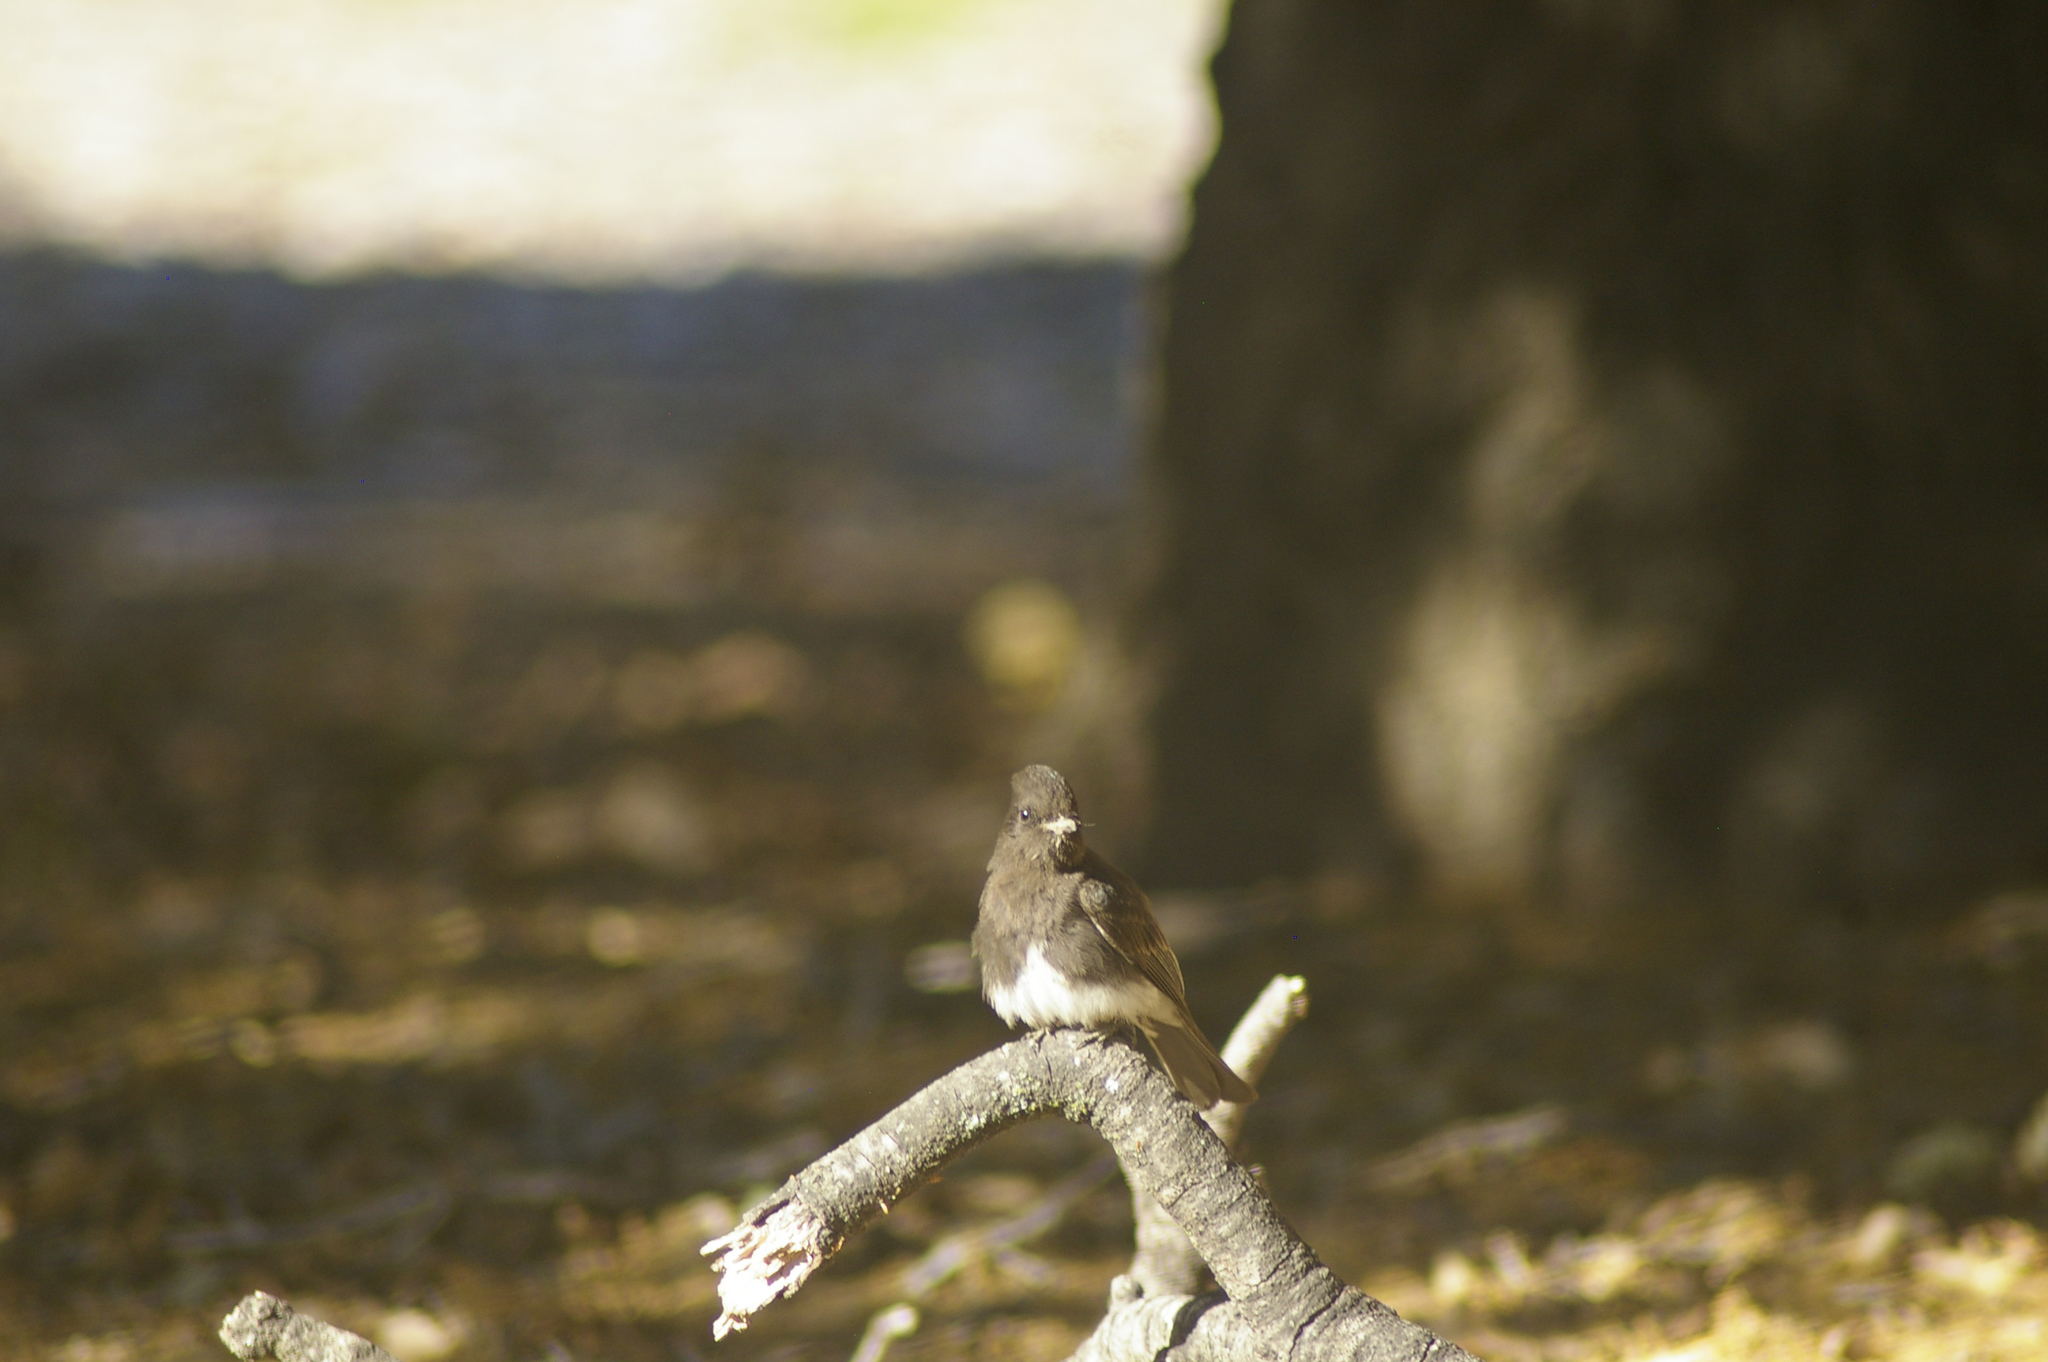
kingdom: Animalia
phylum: Chordata
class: Aves
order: Passeriformes
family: Tyrannidae
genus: Sayornis
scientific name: Sayornis nigricans
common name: Black phoebe
